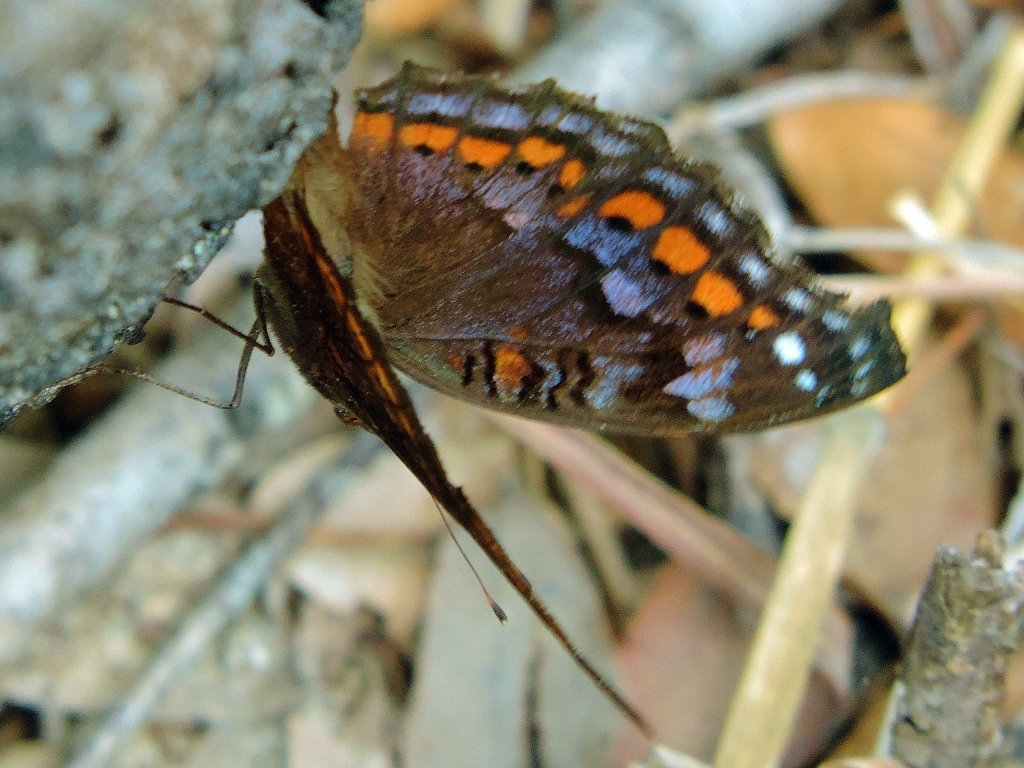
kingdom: Animalia
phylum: Arthropoda
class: Insecta
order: Lepidoptera
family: Nymphalidae
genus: Precis
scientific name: Precis octavia
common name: Gaudy commodore
